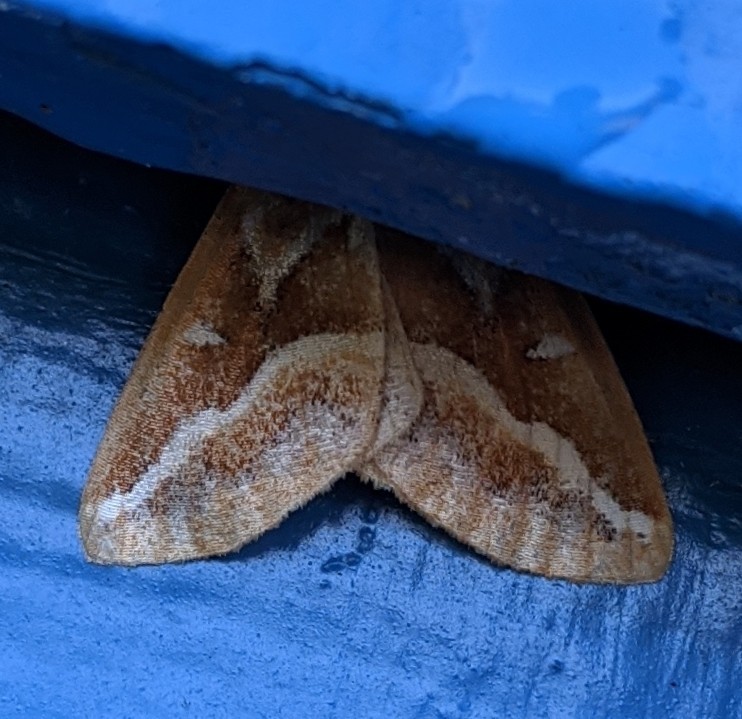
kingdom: Animalia
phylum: Arthropoda
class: Insecta
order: Lepidoptera
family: Geometridae
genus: Caripeta
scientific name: Caripeta angustiorata
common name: Brown pine looper
